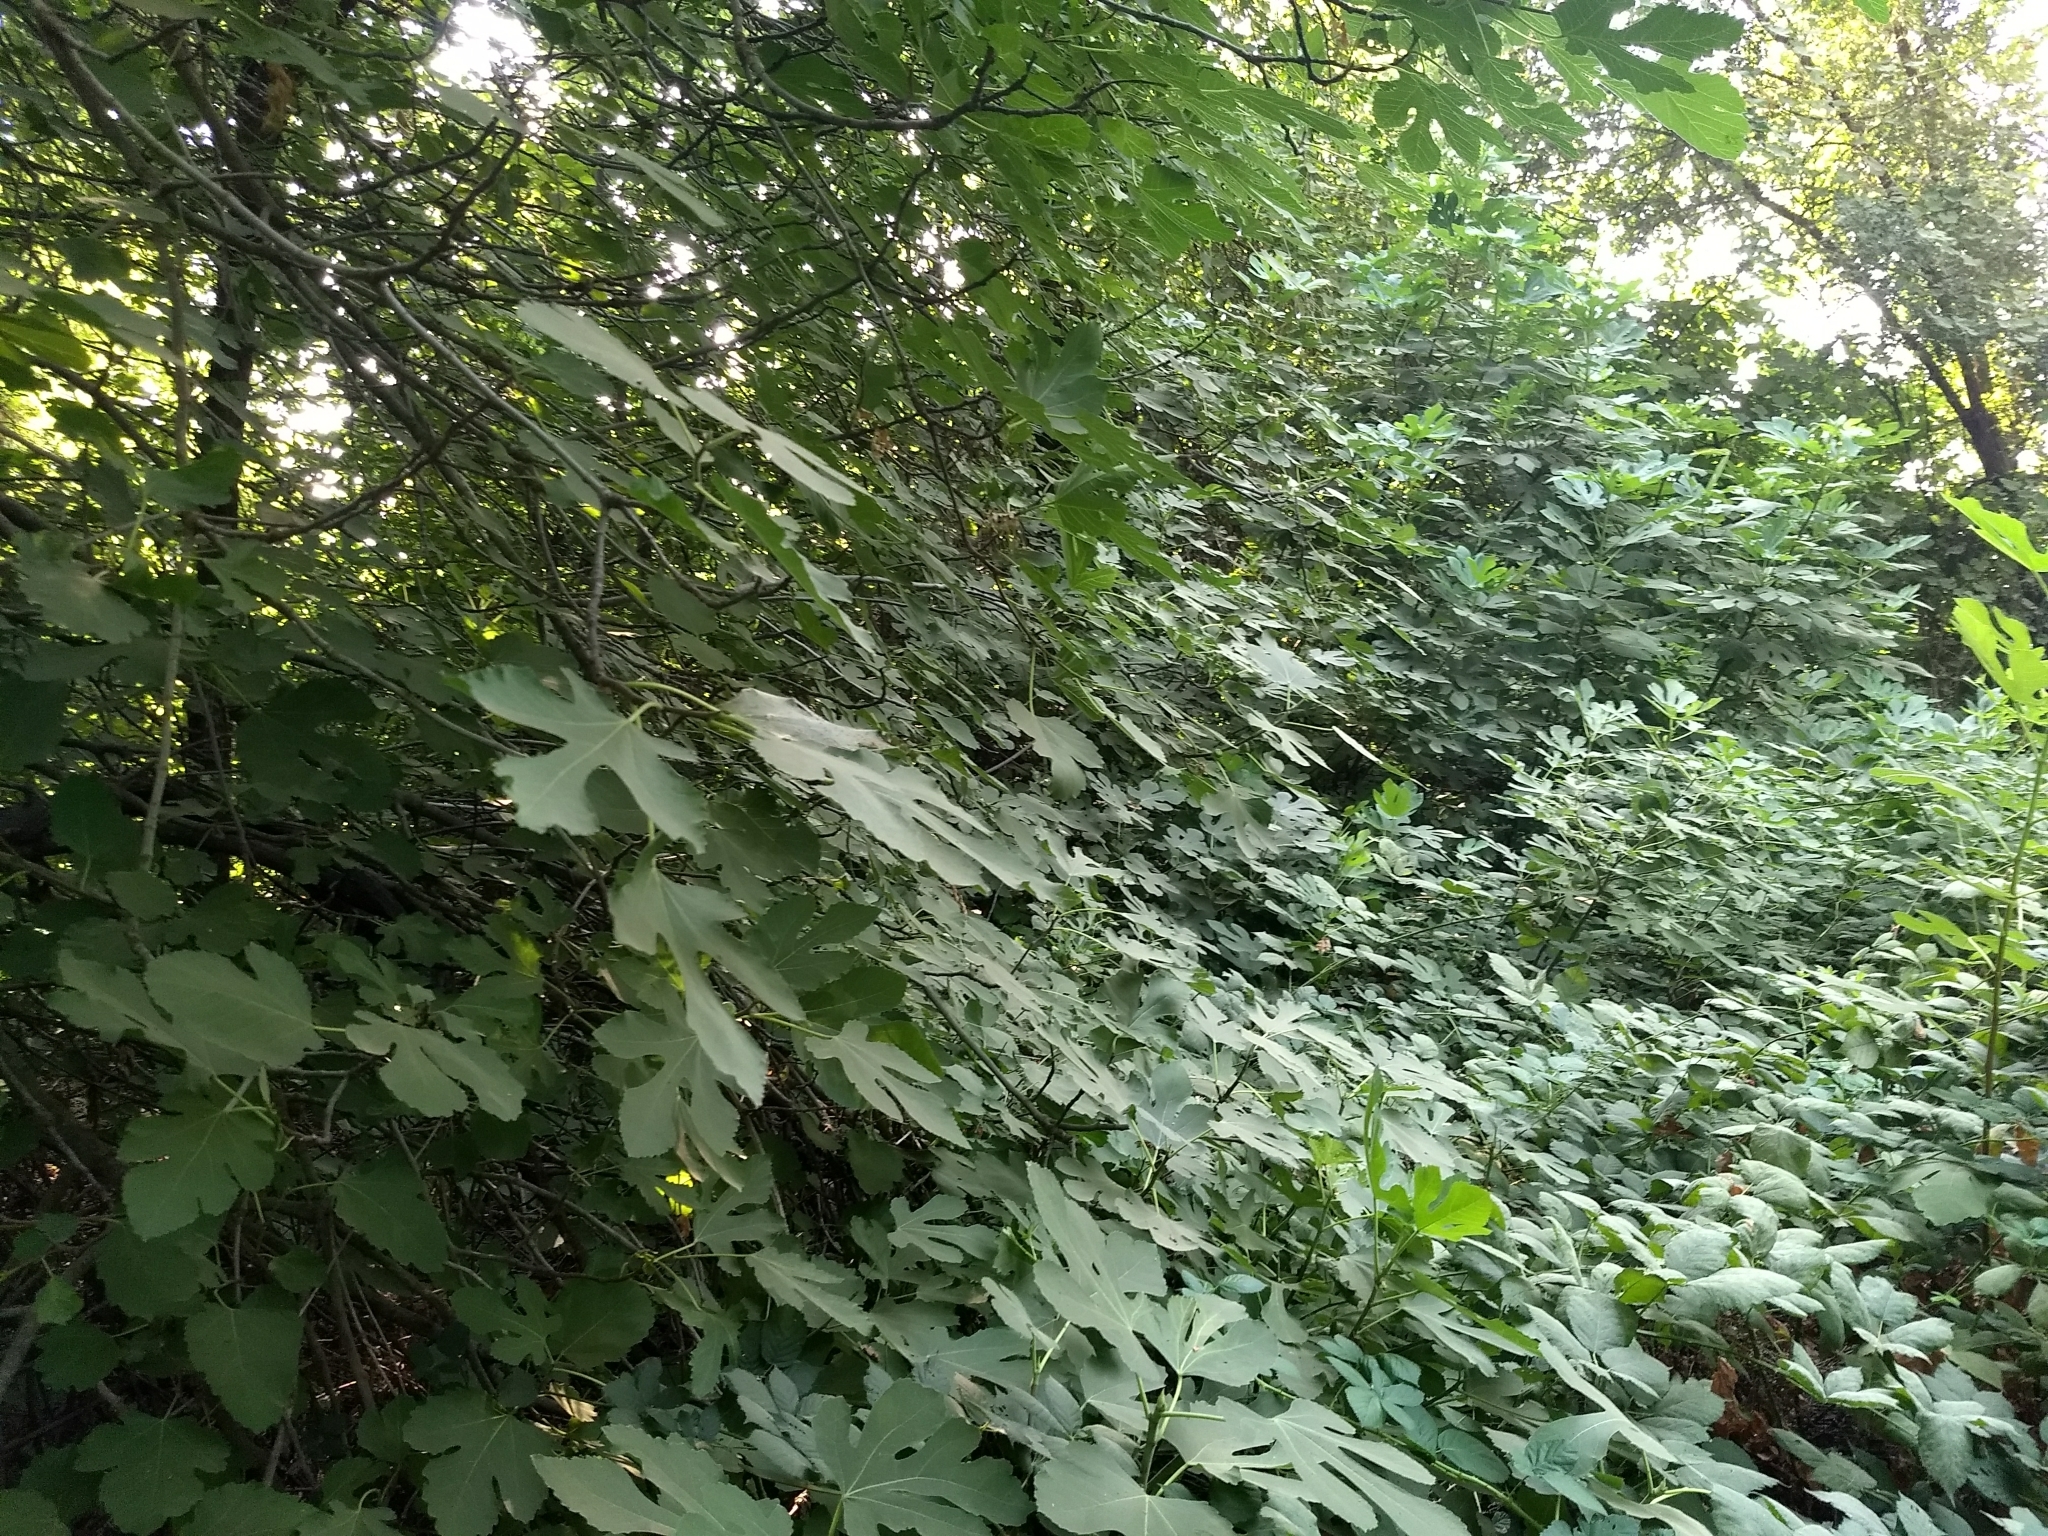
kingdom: Plantae
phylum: Tracheophyta
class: Magnoliopsida
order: Rosales
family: Moraceae
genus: Ficus
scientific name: Ficus carica
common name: Fig
